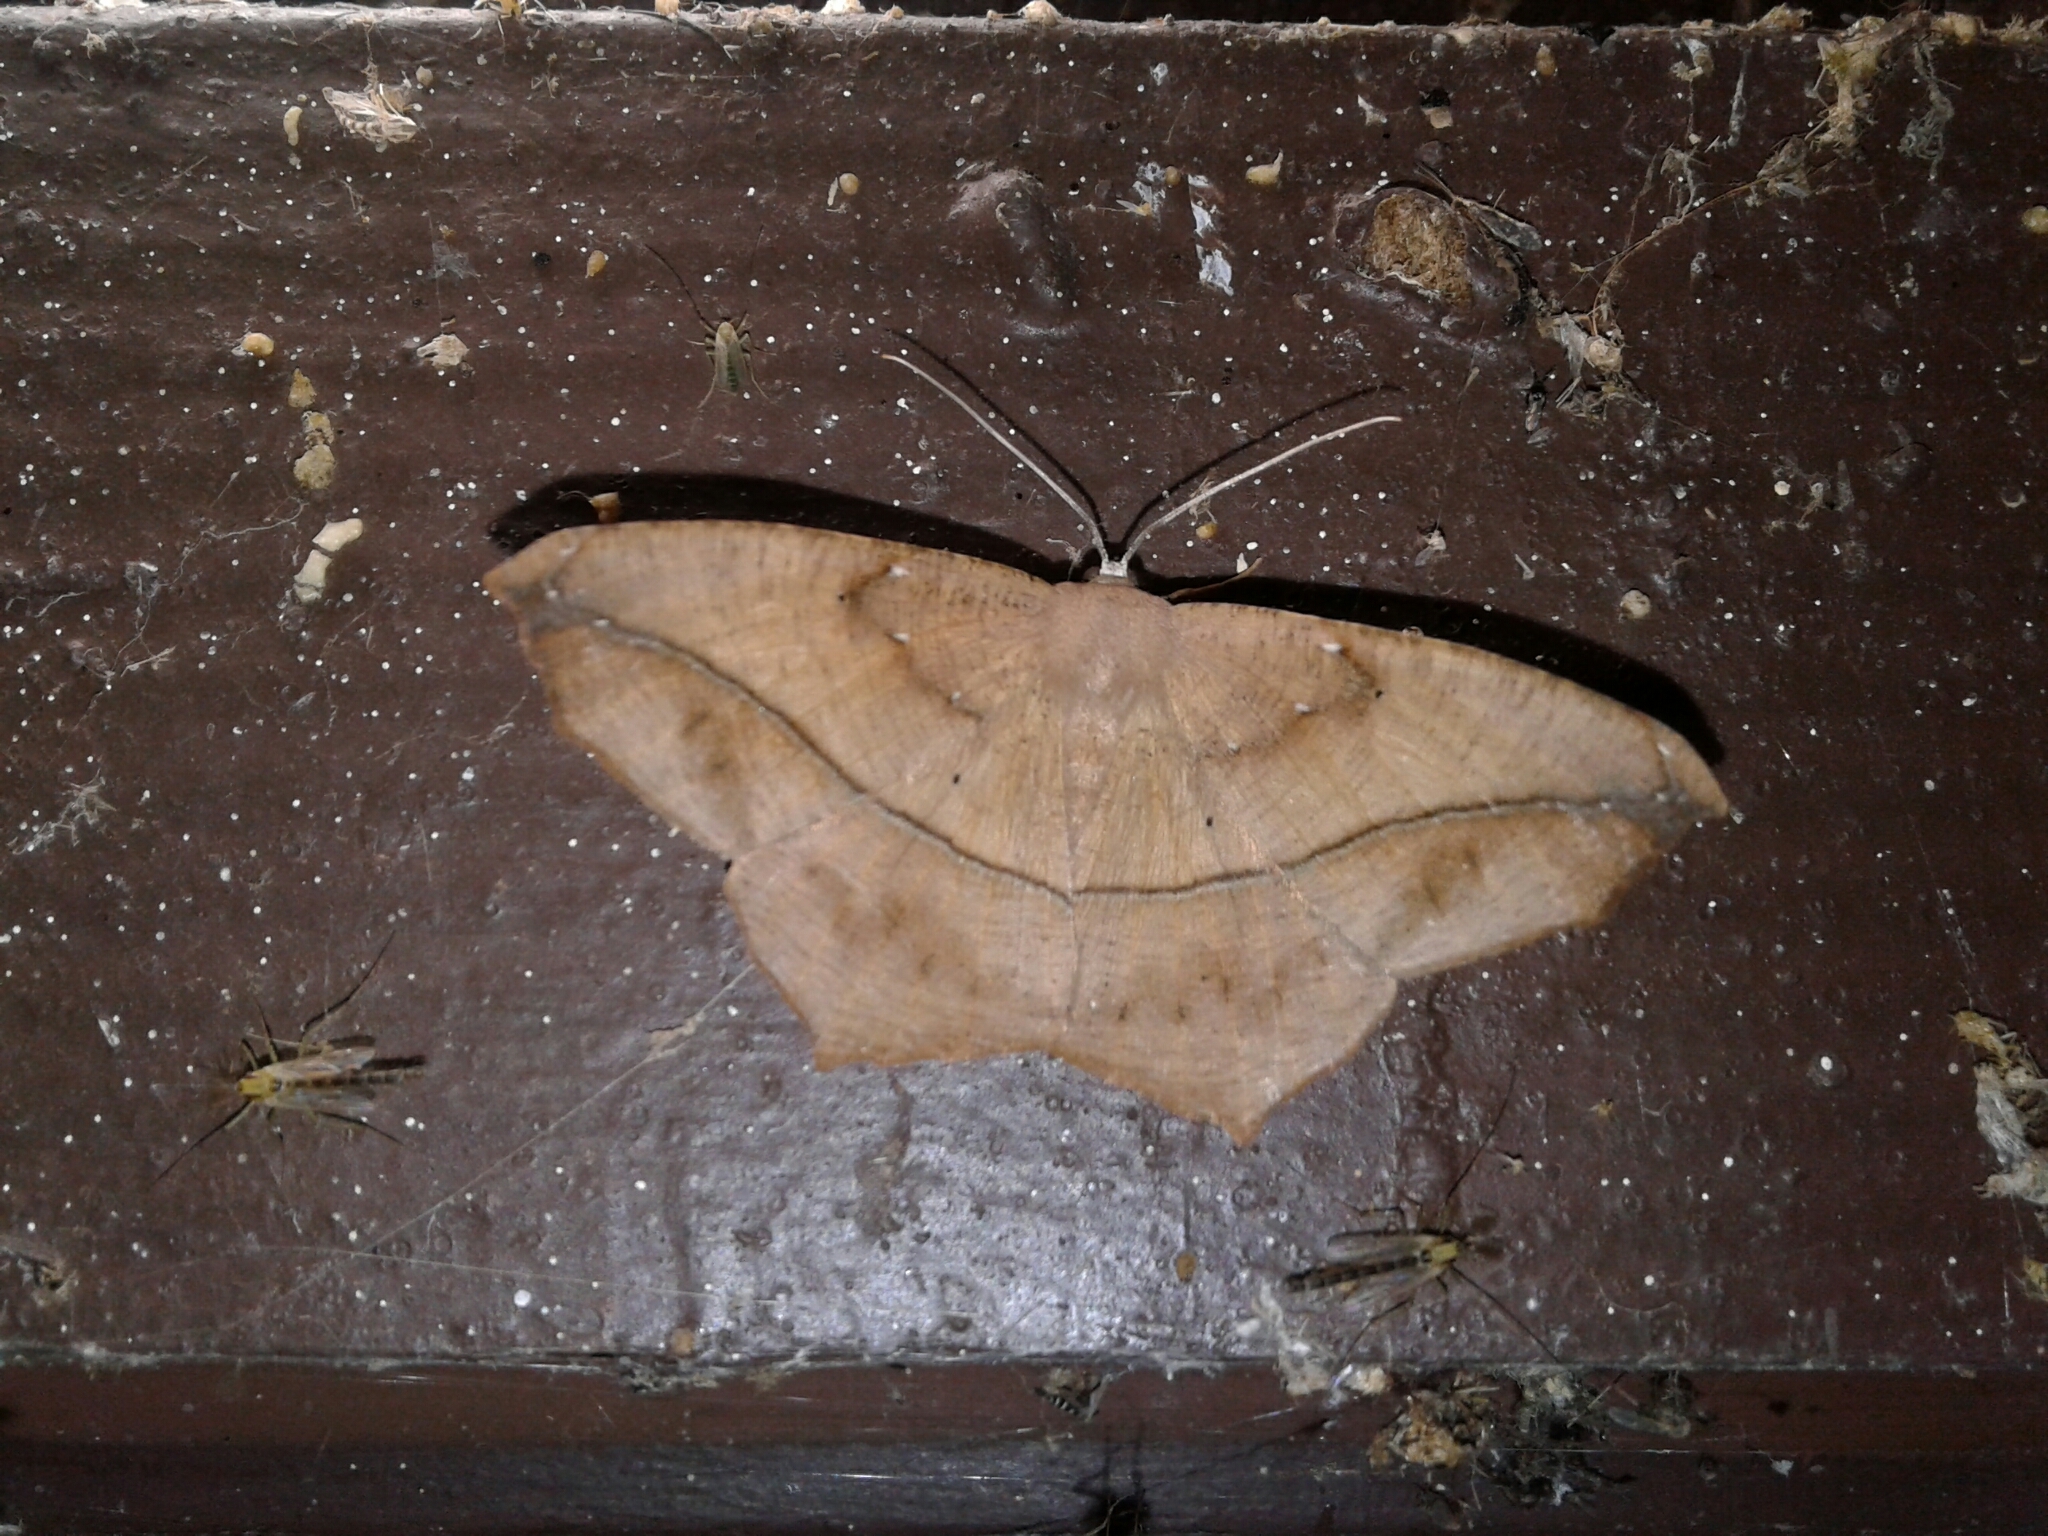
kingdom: Animalia
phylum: Arthropoda
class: Insecta
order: Lepidoptera
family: Geometridae
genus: Prochoerodes
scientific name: Prochoerodes lineola
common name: Large maple spanworm
